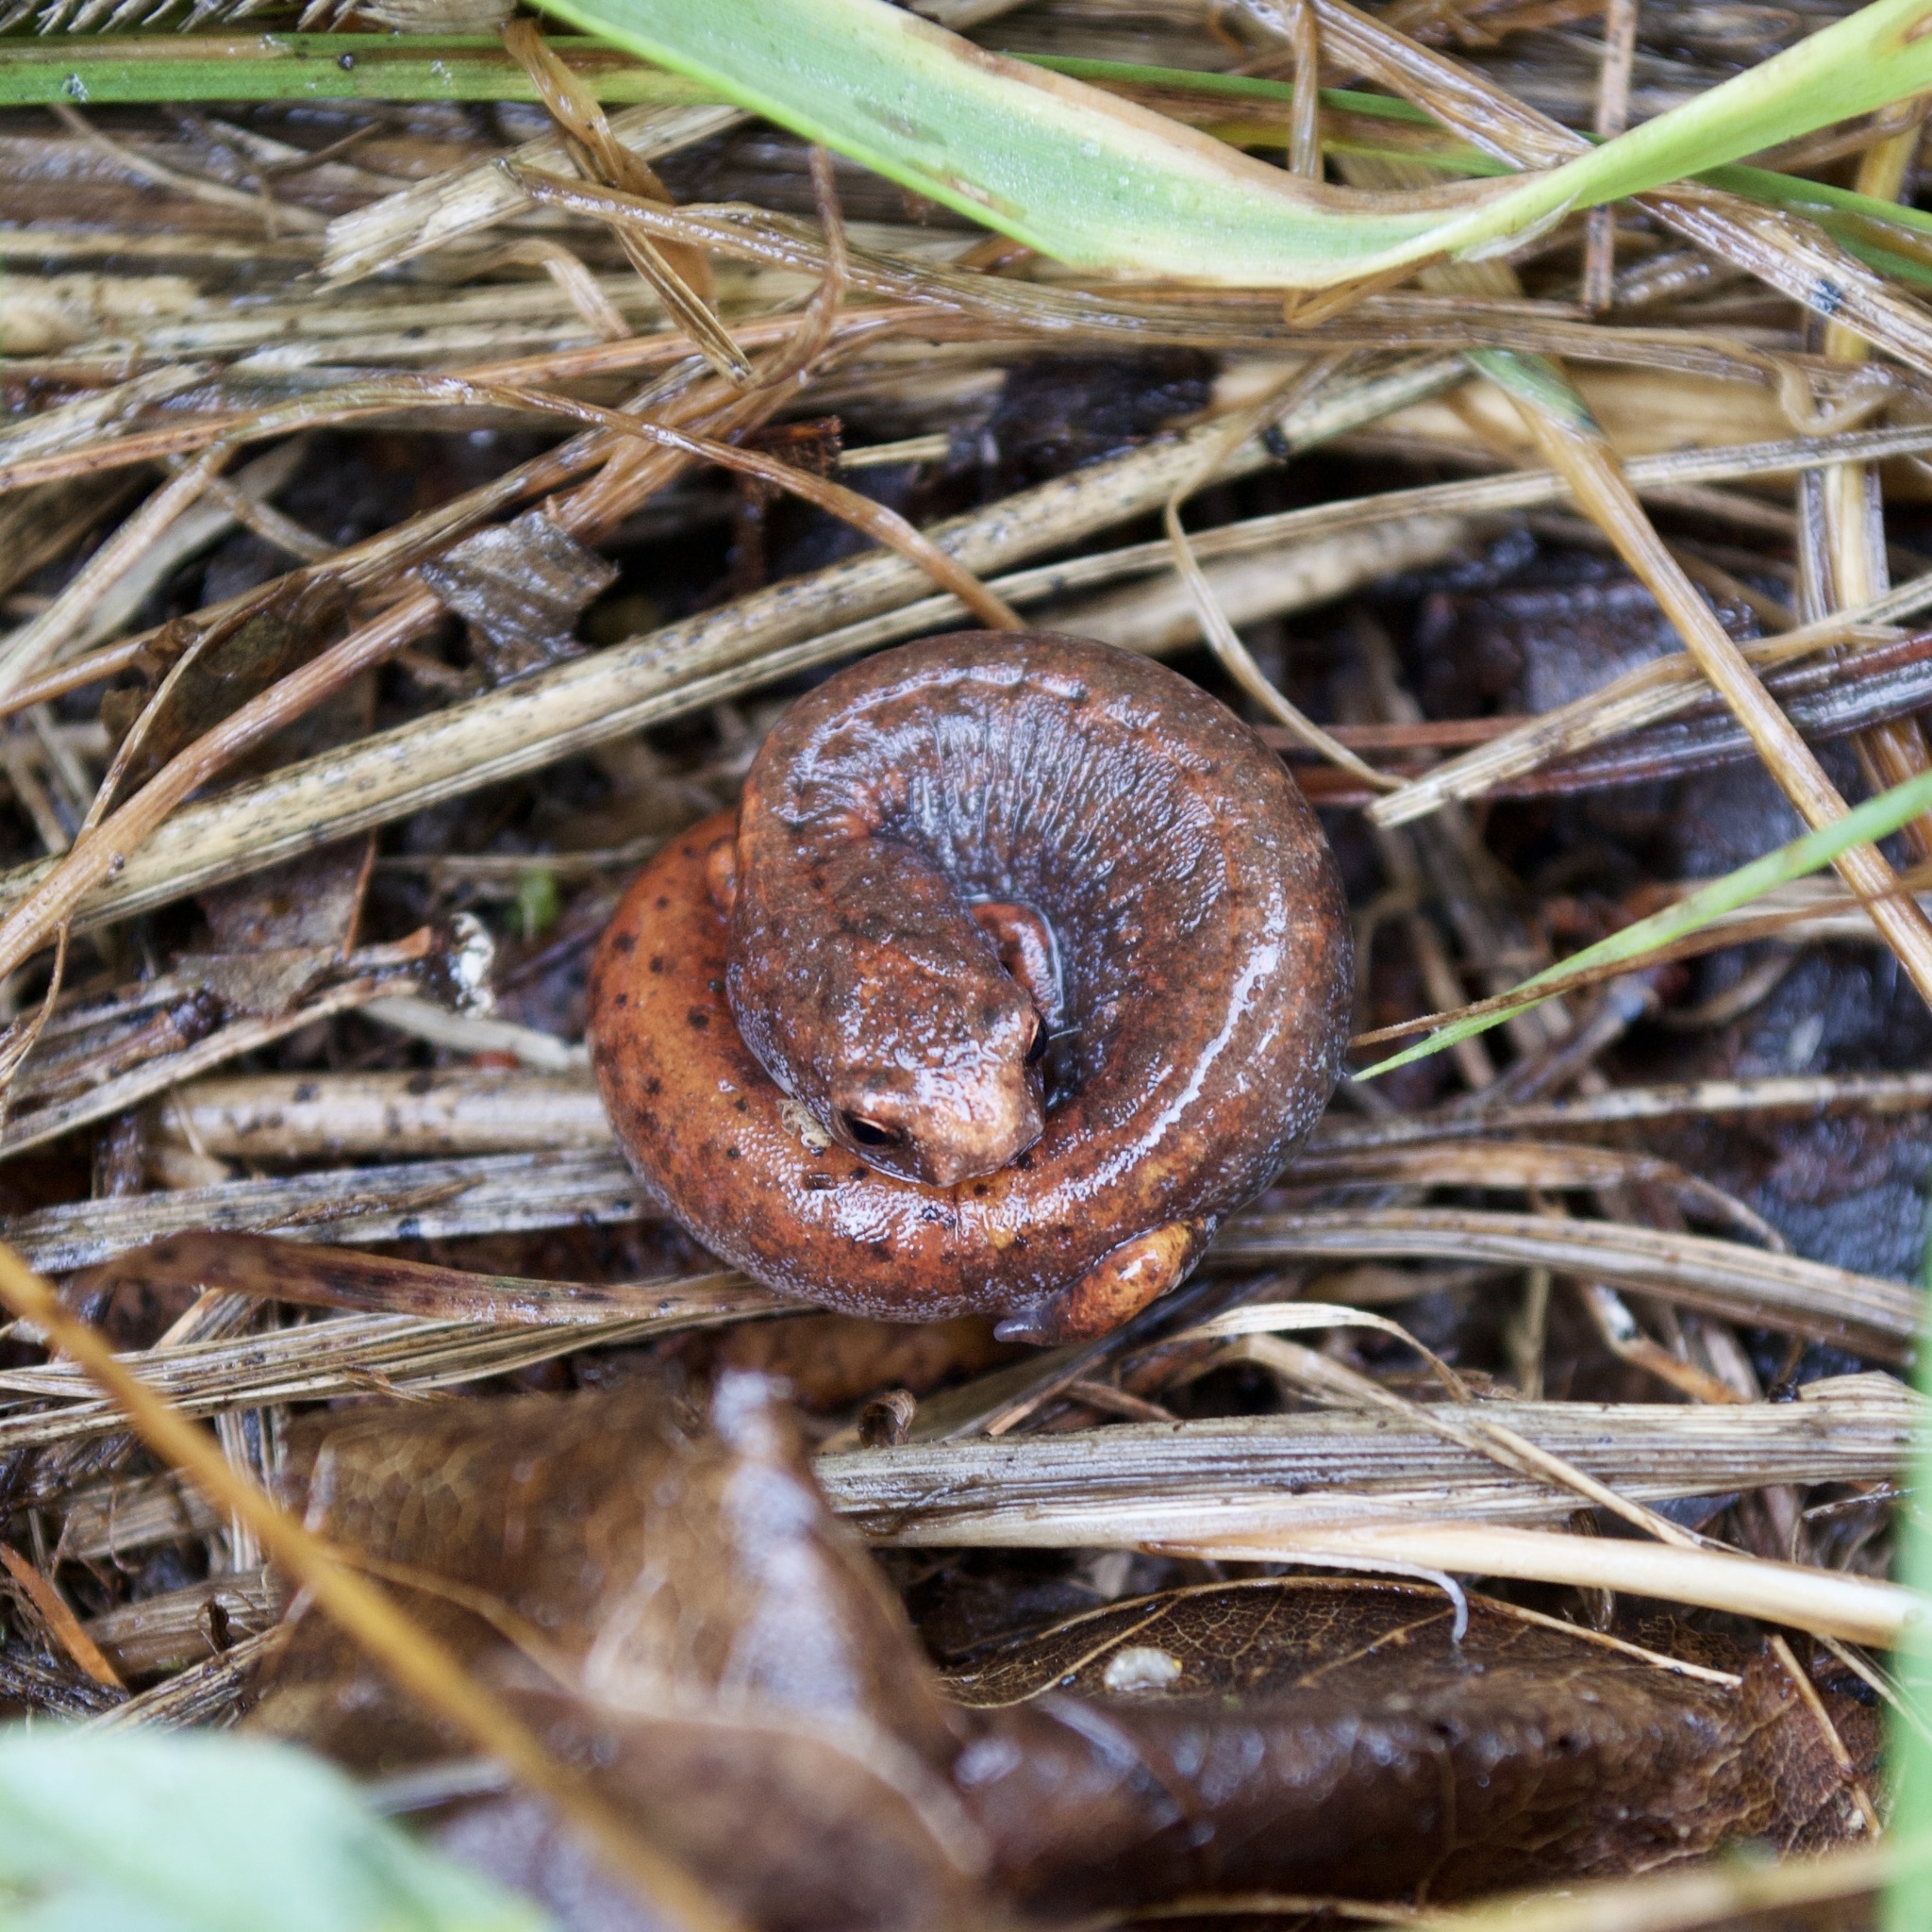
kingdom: Animalia
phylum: Chordata
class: Amphibia
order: Caudata
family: Plethodontidae
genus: Hemidactylium
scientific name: Hemidactylium scutatum
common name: Four-toed salamander
